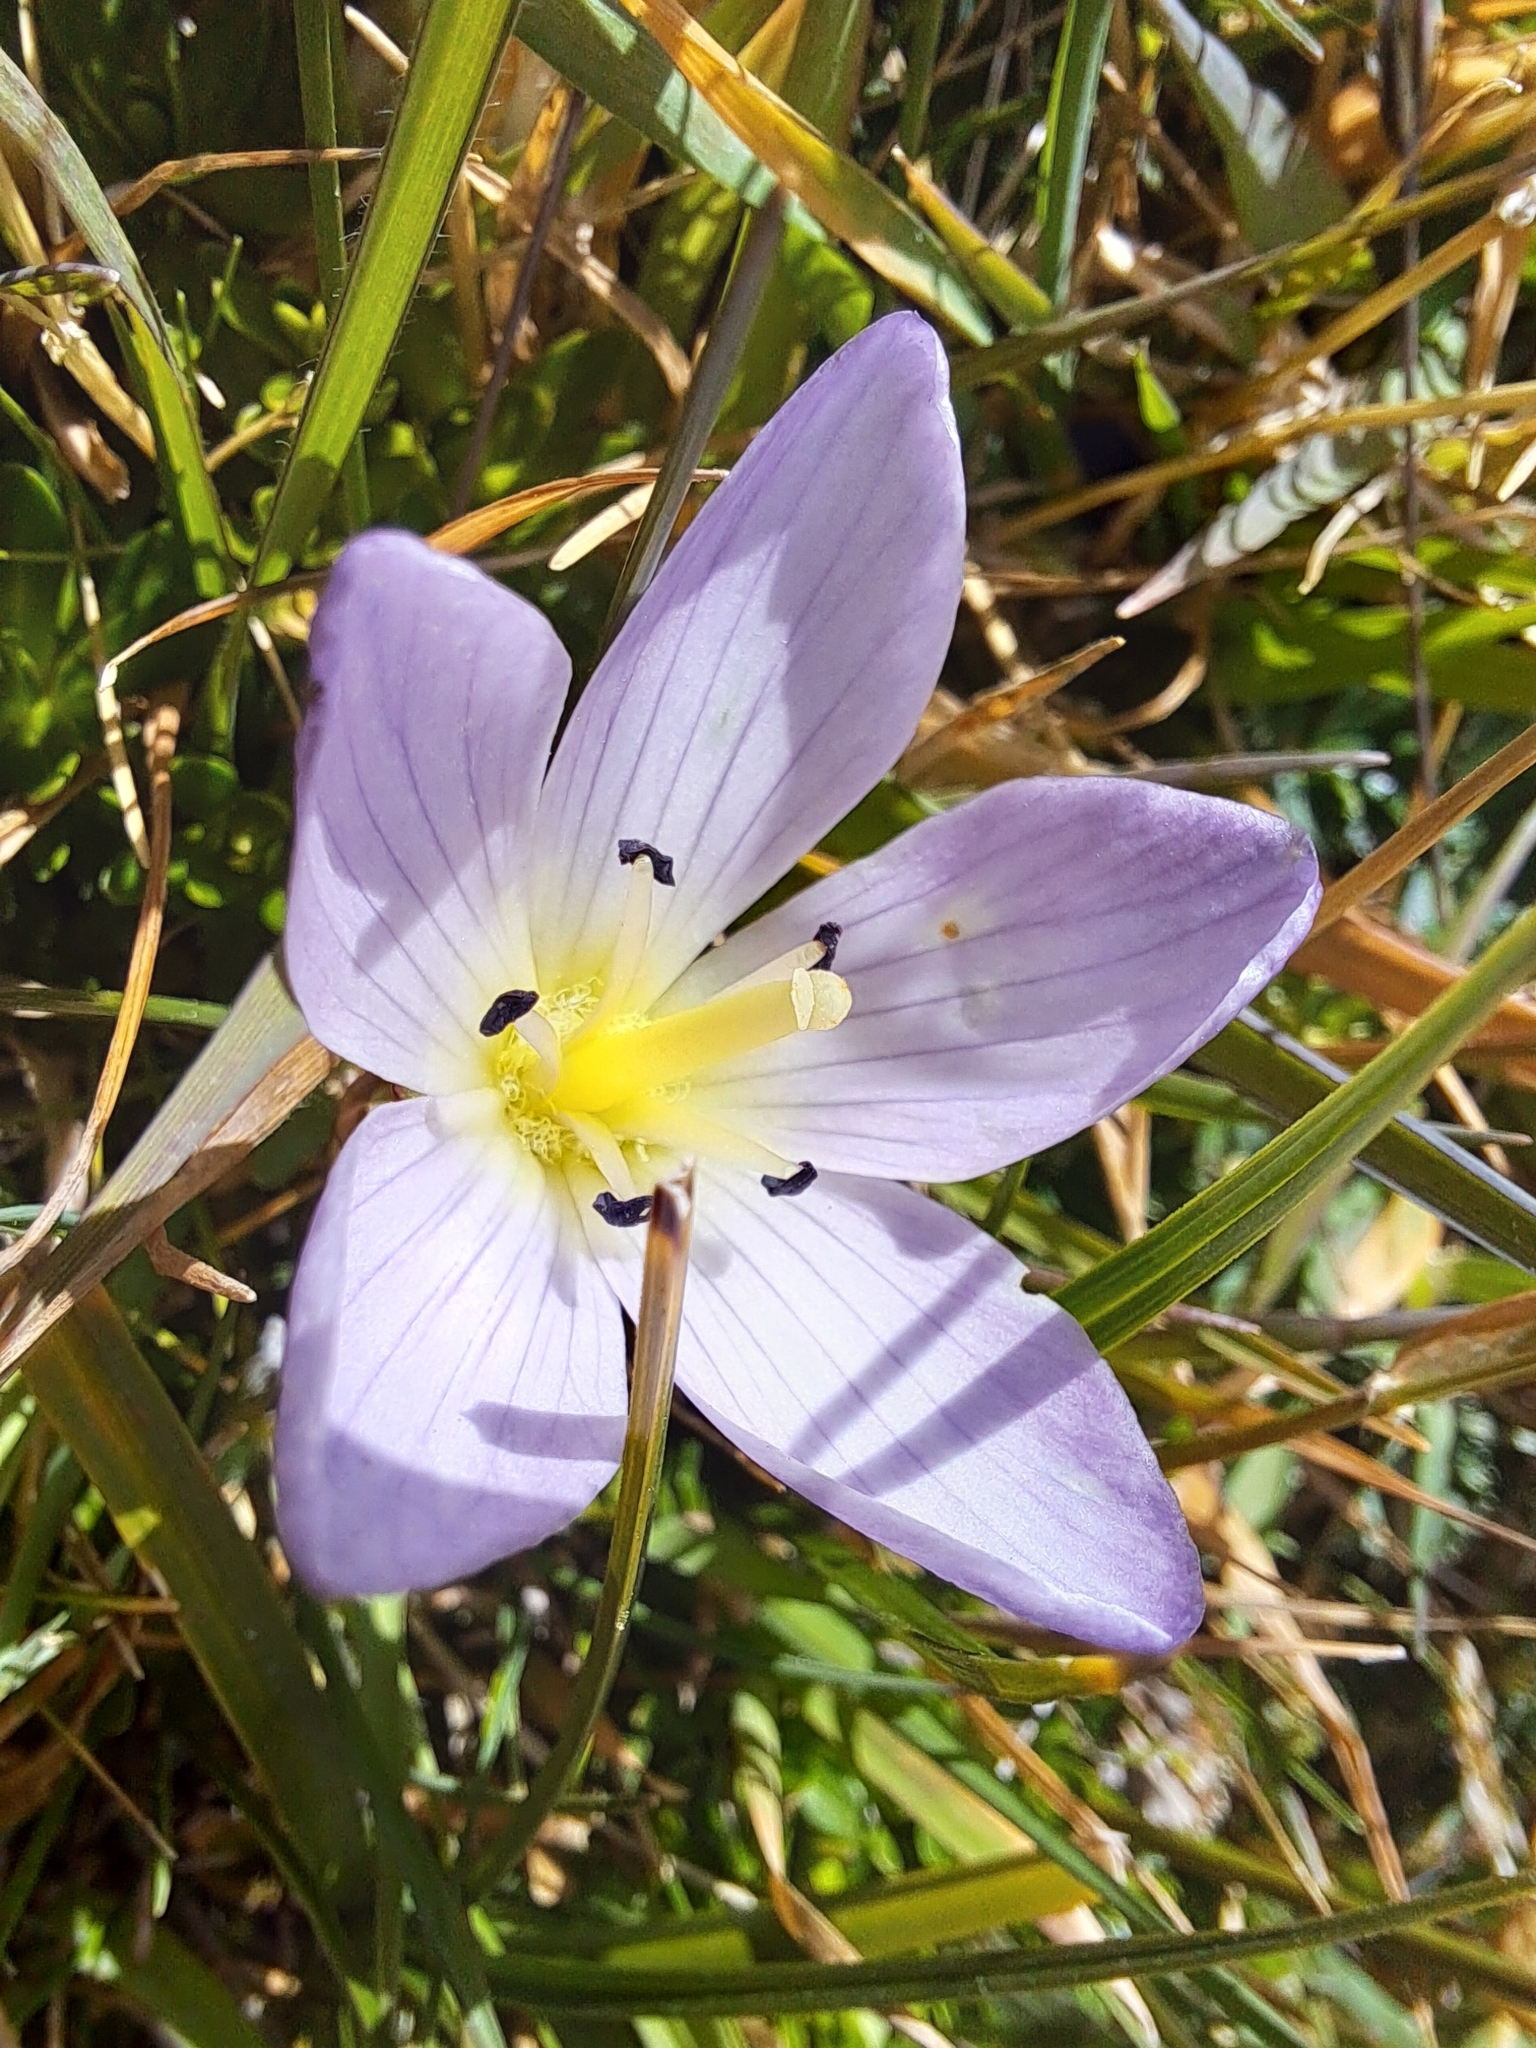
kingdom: Plantae
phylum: Tracheophyta
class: Magnoliopsida
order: Gentianales
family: Gentianaceae
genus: Gentianella
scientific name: Gentianella cerastioides
